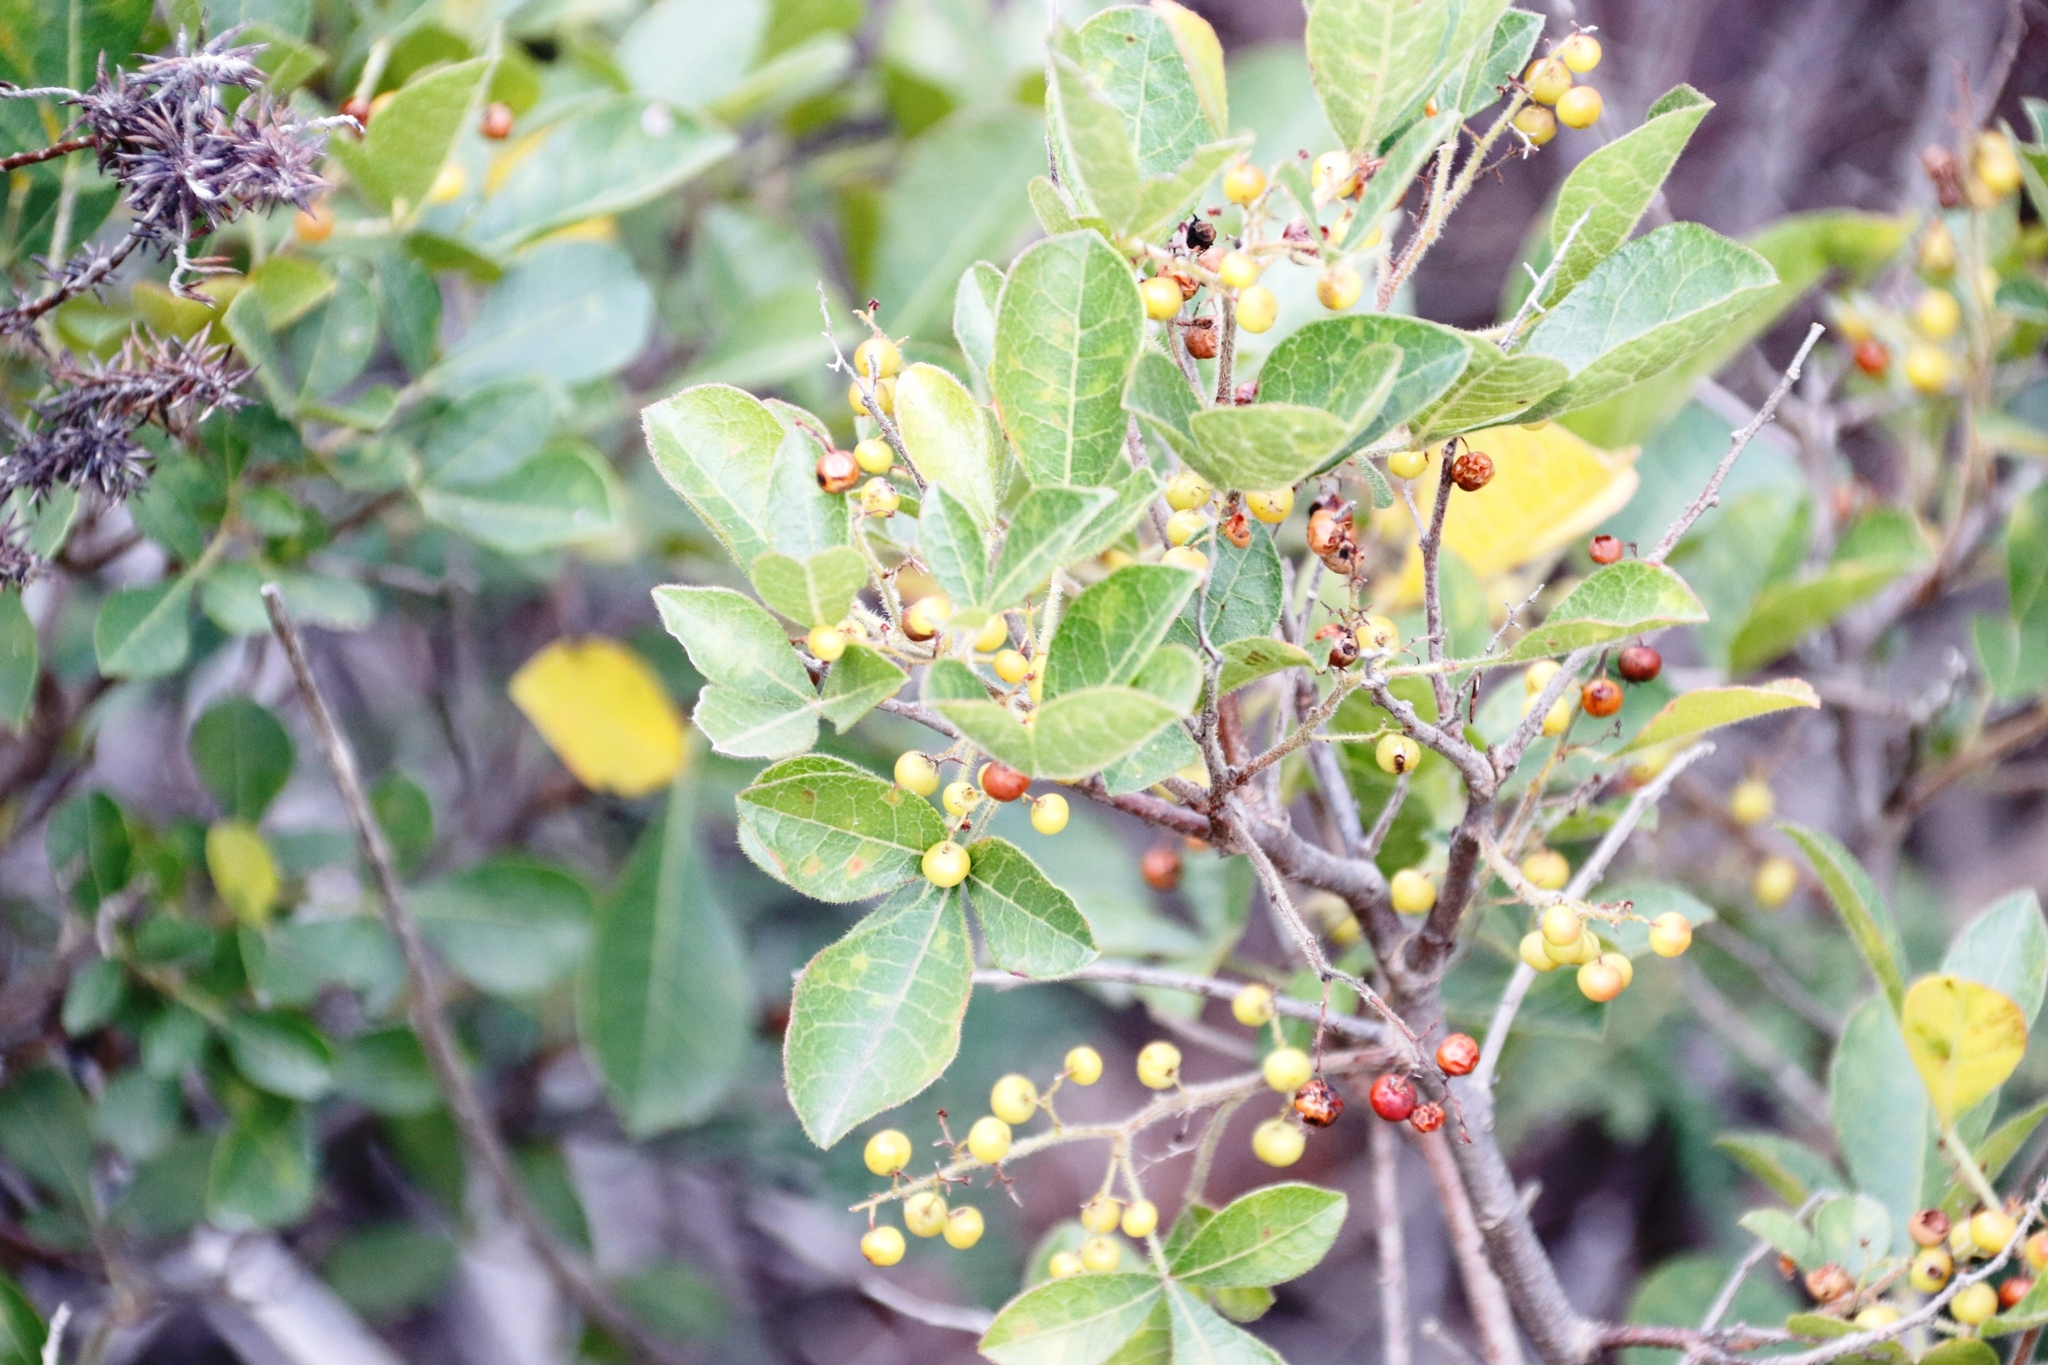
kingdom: Plantae
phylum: Tracheophyta
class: Magnoliopsida
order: Sapindales
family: Anacardiaceae
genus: Searsia
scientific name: Searsia laevigata
